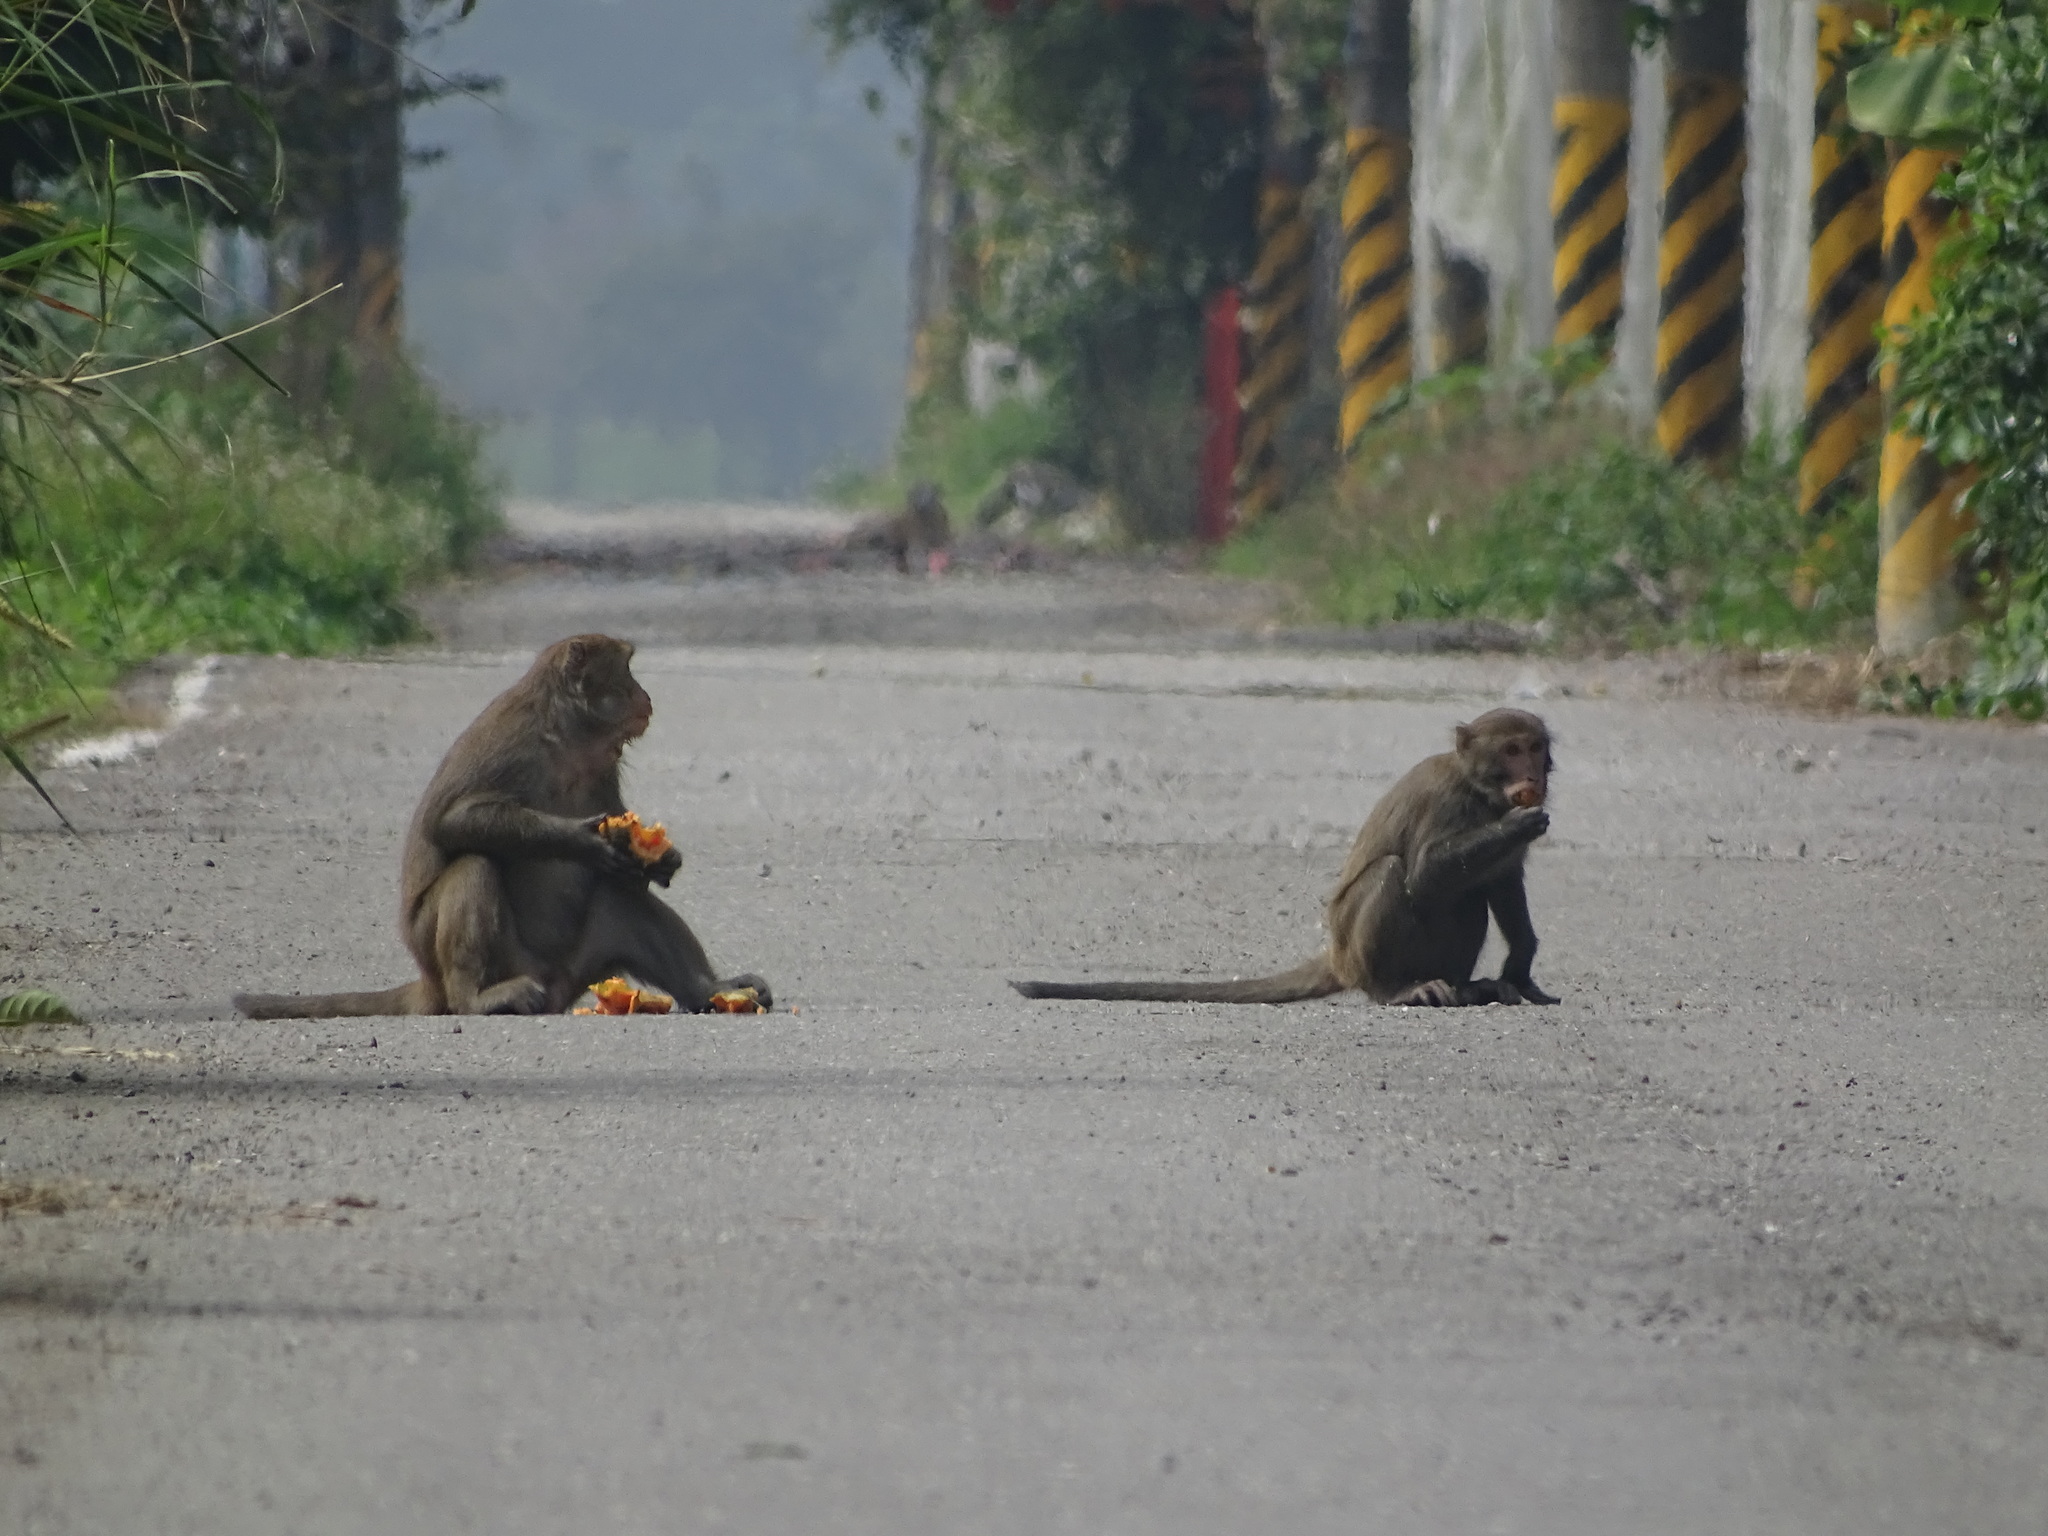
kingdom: Animalia
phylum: Chordata
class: Mammalia
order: Primates
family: Cercopithecidae
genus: Macaca
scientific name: Macaca cyclopis
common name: Formosan rock macaque
